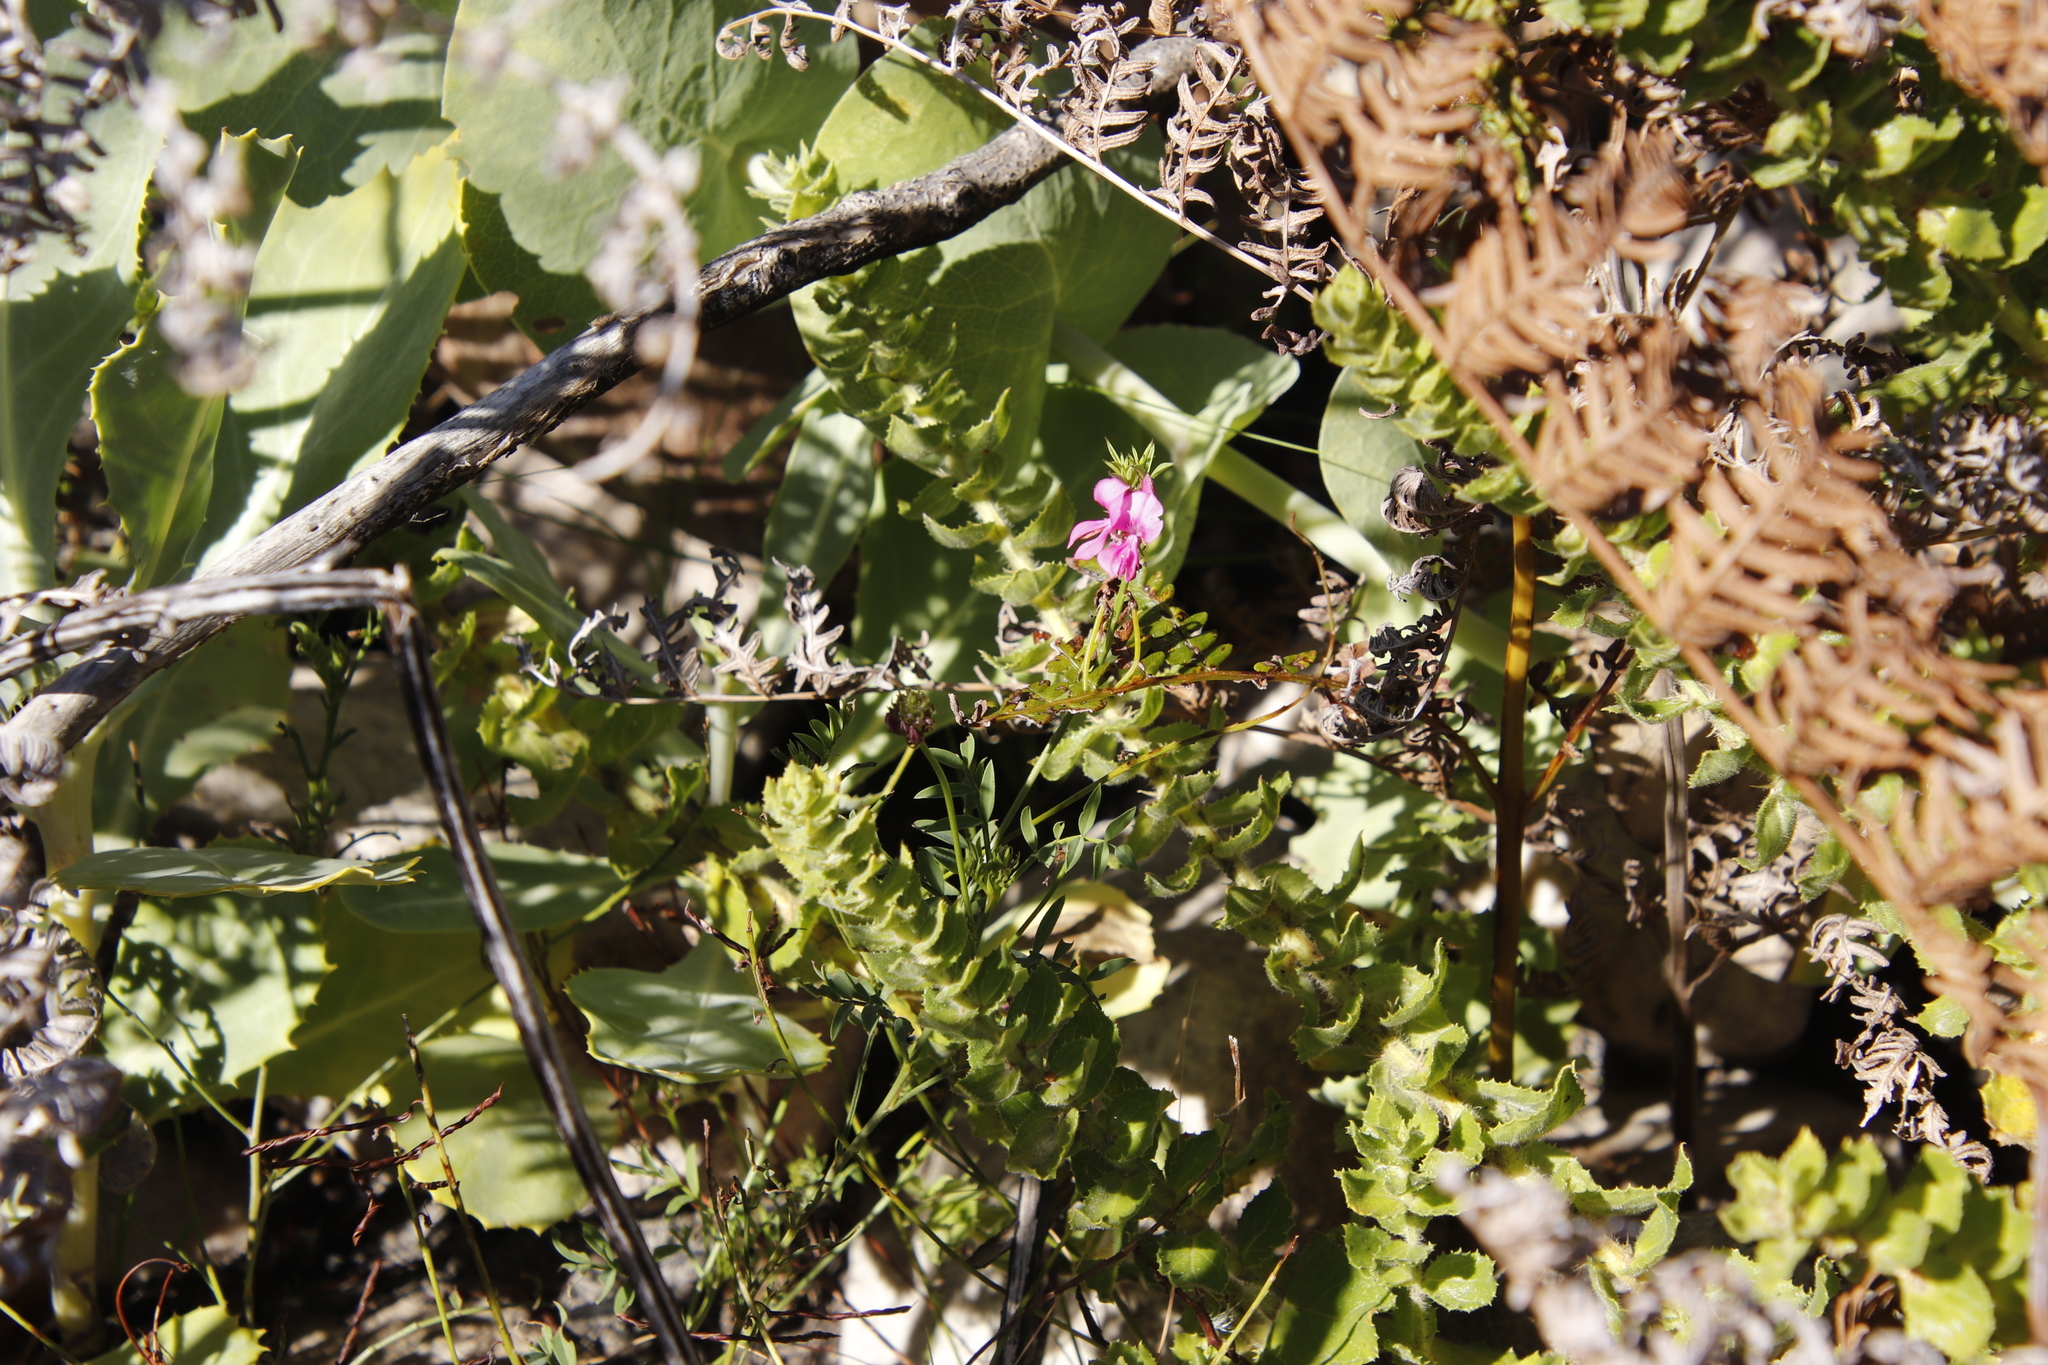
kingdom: Plantae
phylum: Tracheophyta
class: Magnoliopsida
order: Fabales
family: Fabaceae
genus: Indigofera
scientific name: Indigofera capillaris
